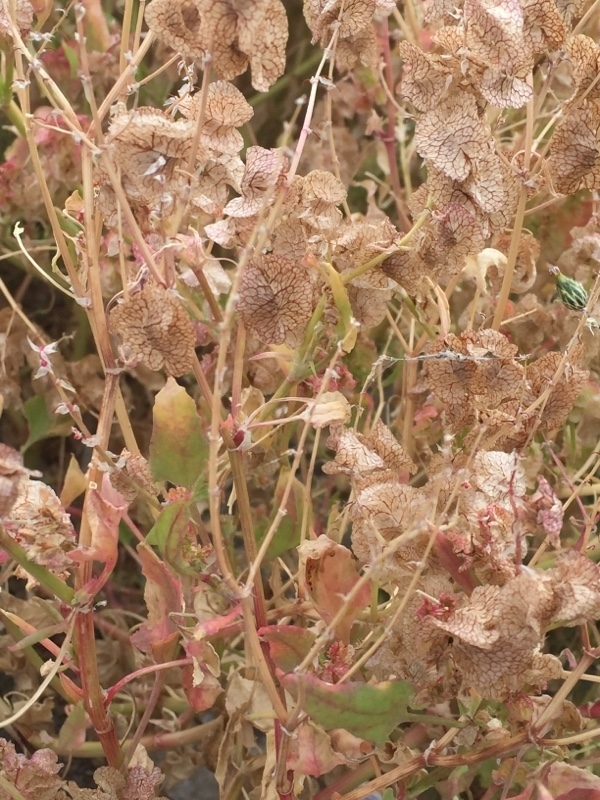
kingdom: Plantae
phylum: Tracheophyta
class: Magnoliopsida
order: Caryophyllales
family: Polygonaceae
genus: Rumex
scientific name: Rumex vesicarius
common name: Bladder dock
